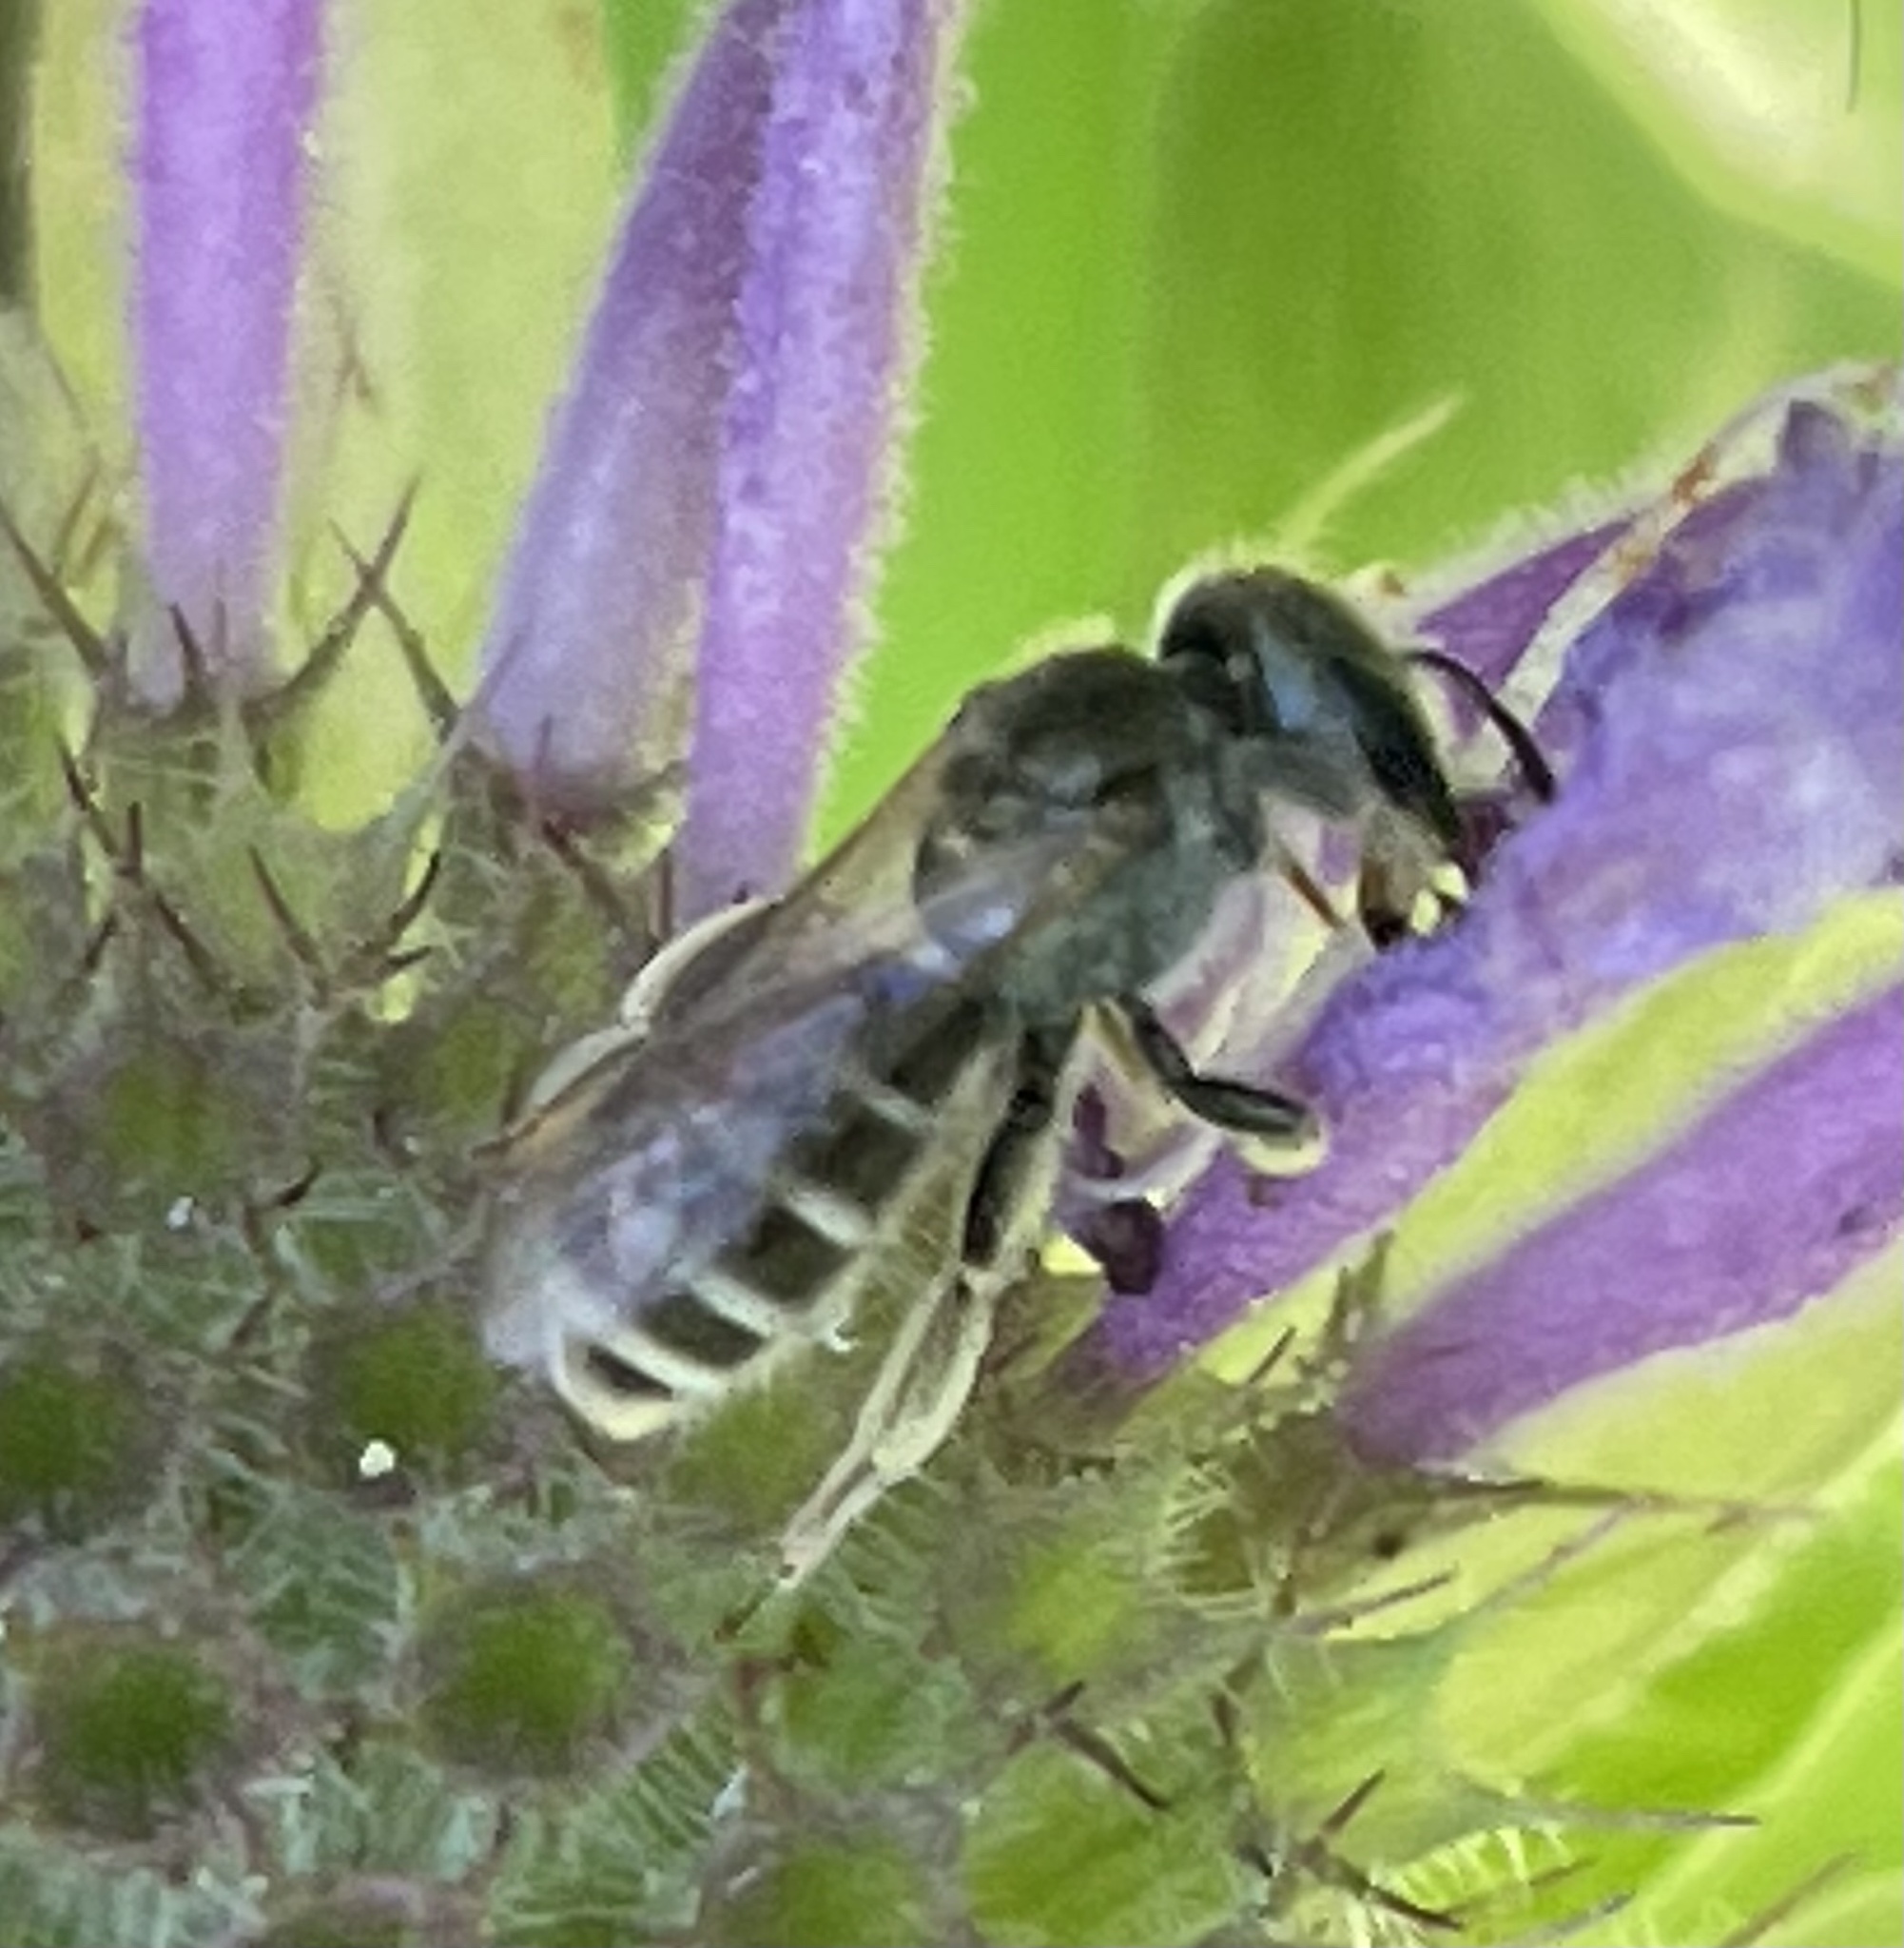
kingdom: Animalia
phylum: Arthropoda
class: Insecta
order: Hymenoptera
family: Halictidae
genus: Halictus
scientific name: Halictus tripartitus
